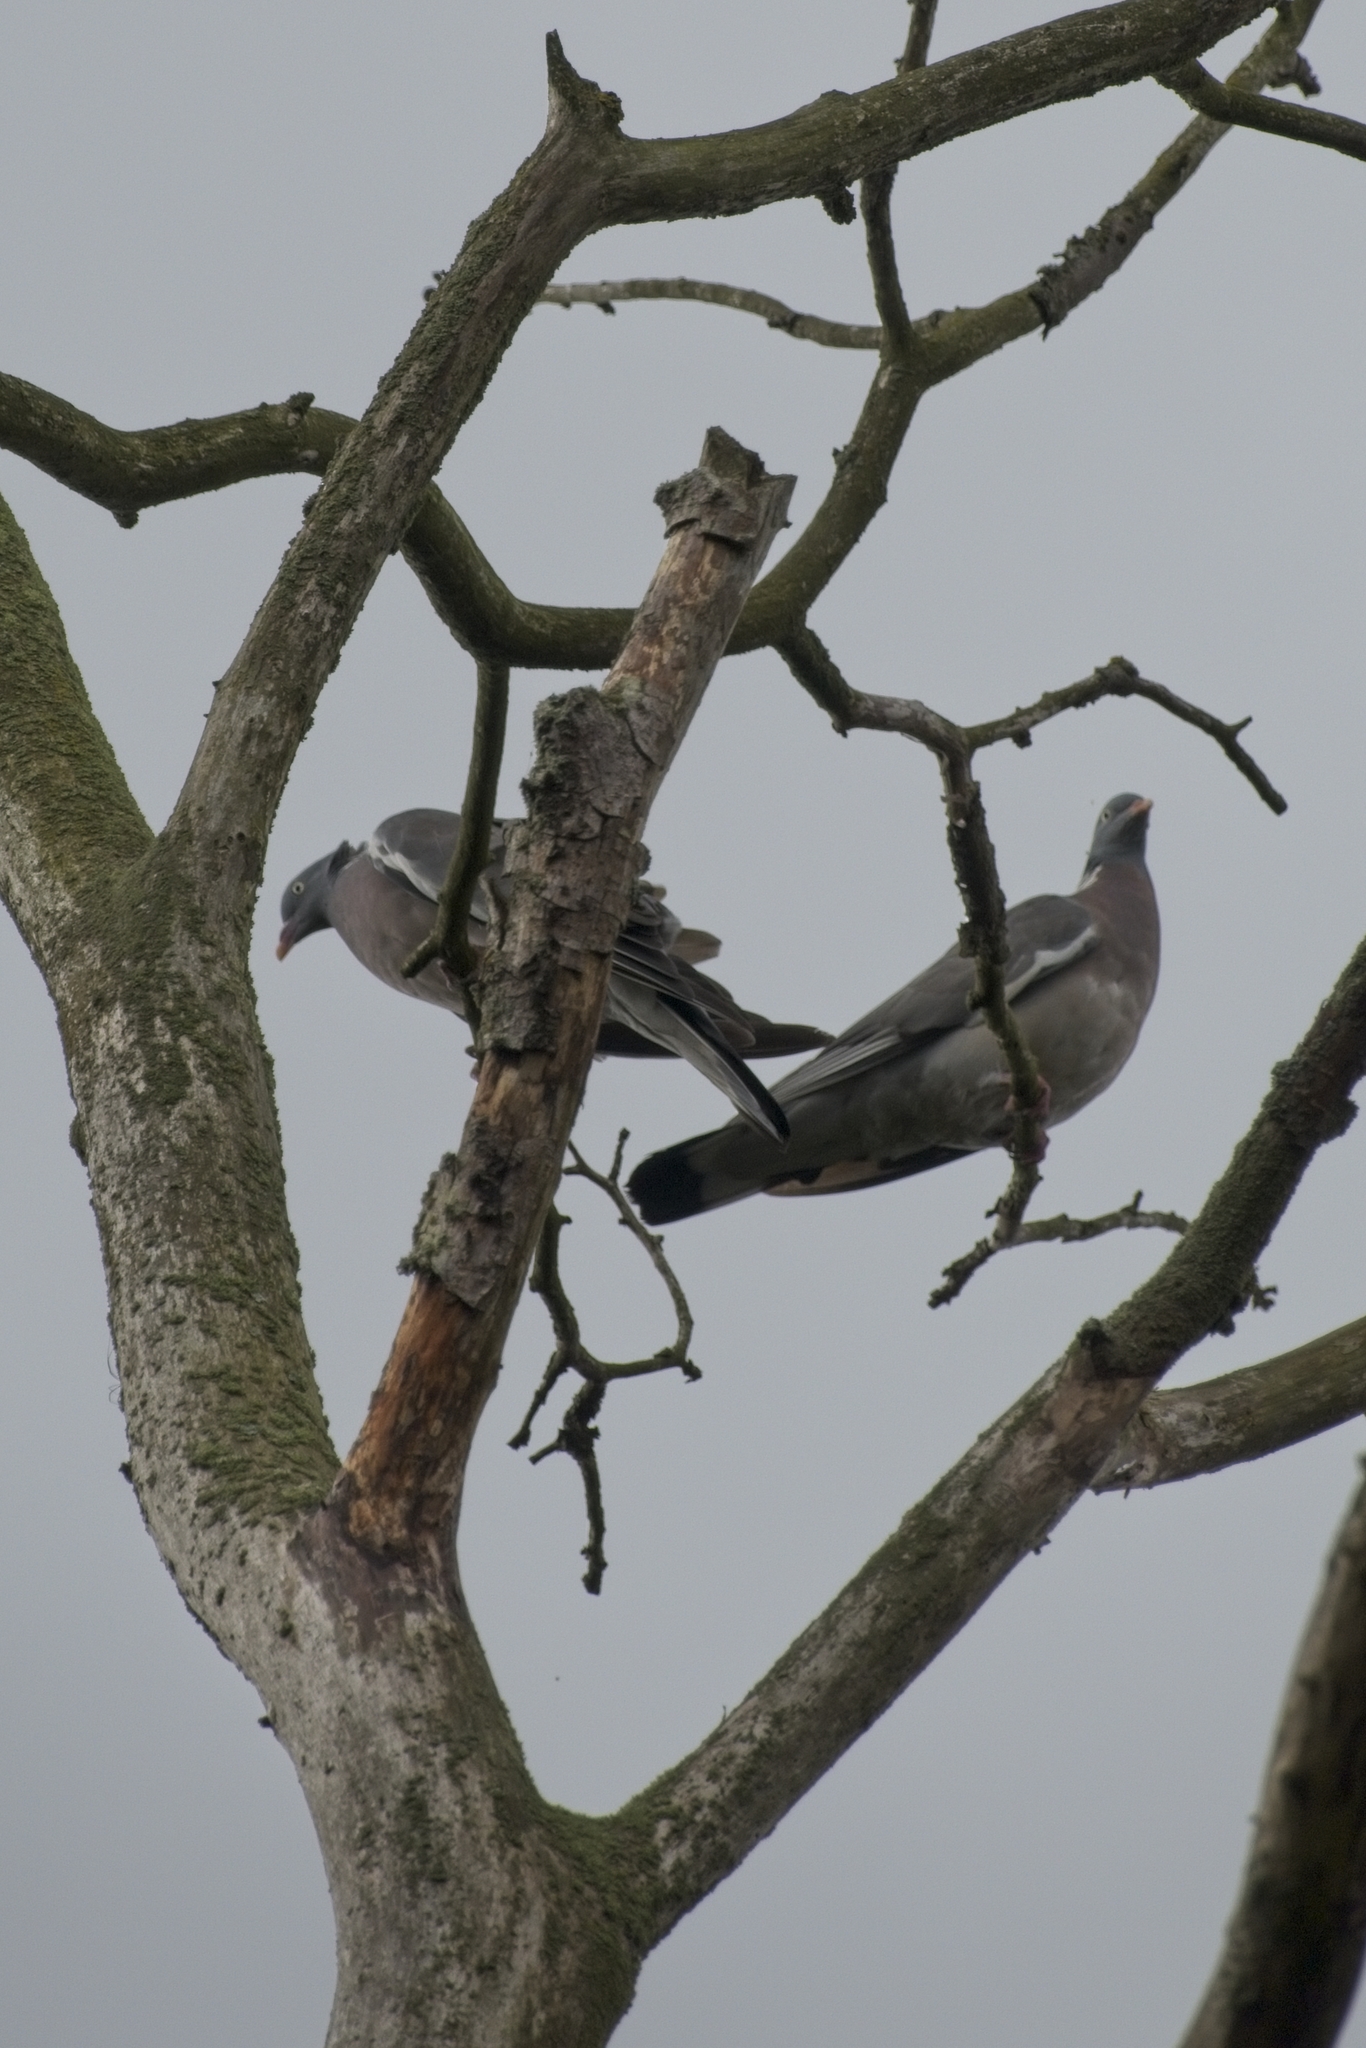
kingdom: Animalia
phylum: Chordata
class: Aves
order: Columbiformes
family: Columbidae
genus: Columba
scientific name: Columba palumbus
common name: Common wood pigeon
